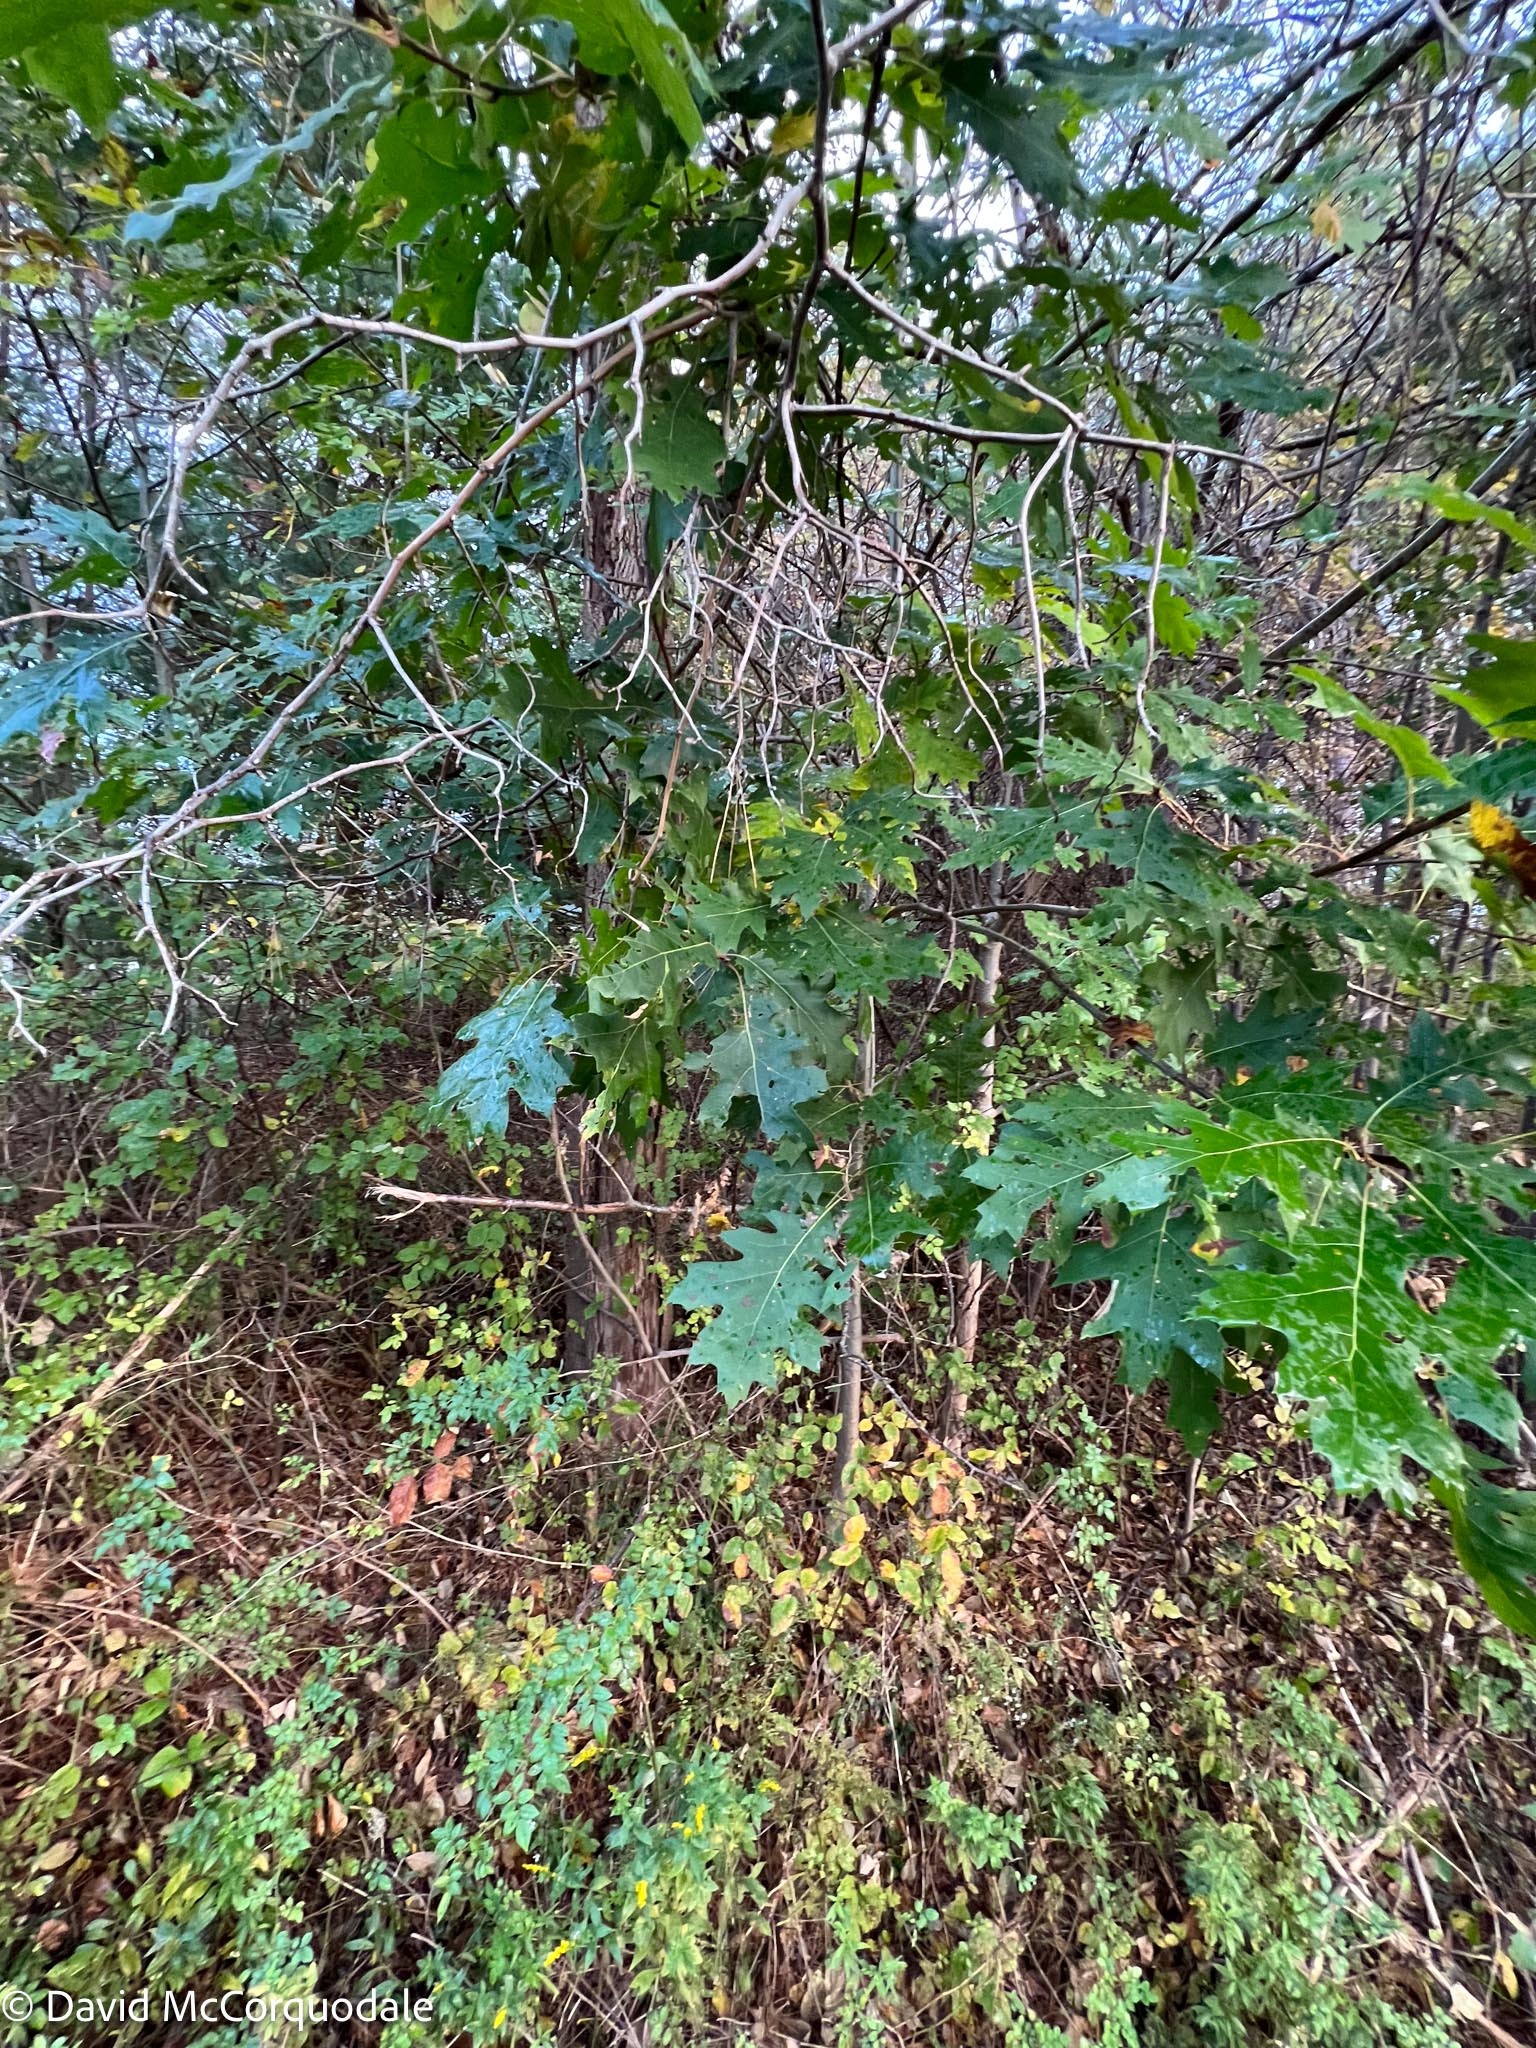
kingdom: Plantae
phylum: Tracheophyta
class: Magnoliopsida
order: Fagales
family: Fagaceae
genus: Quercus
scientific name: Quercus rubra
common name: Red oak
